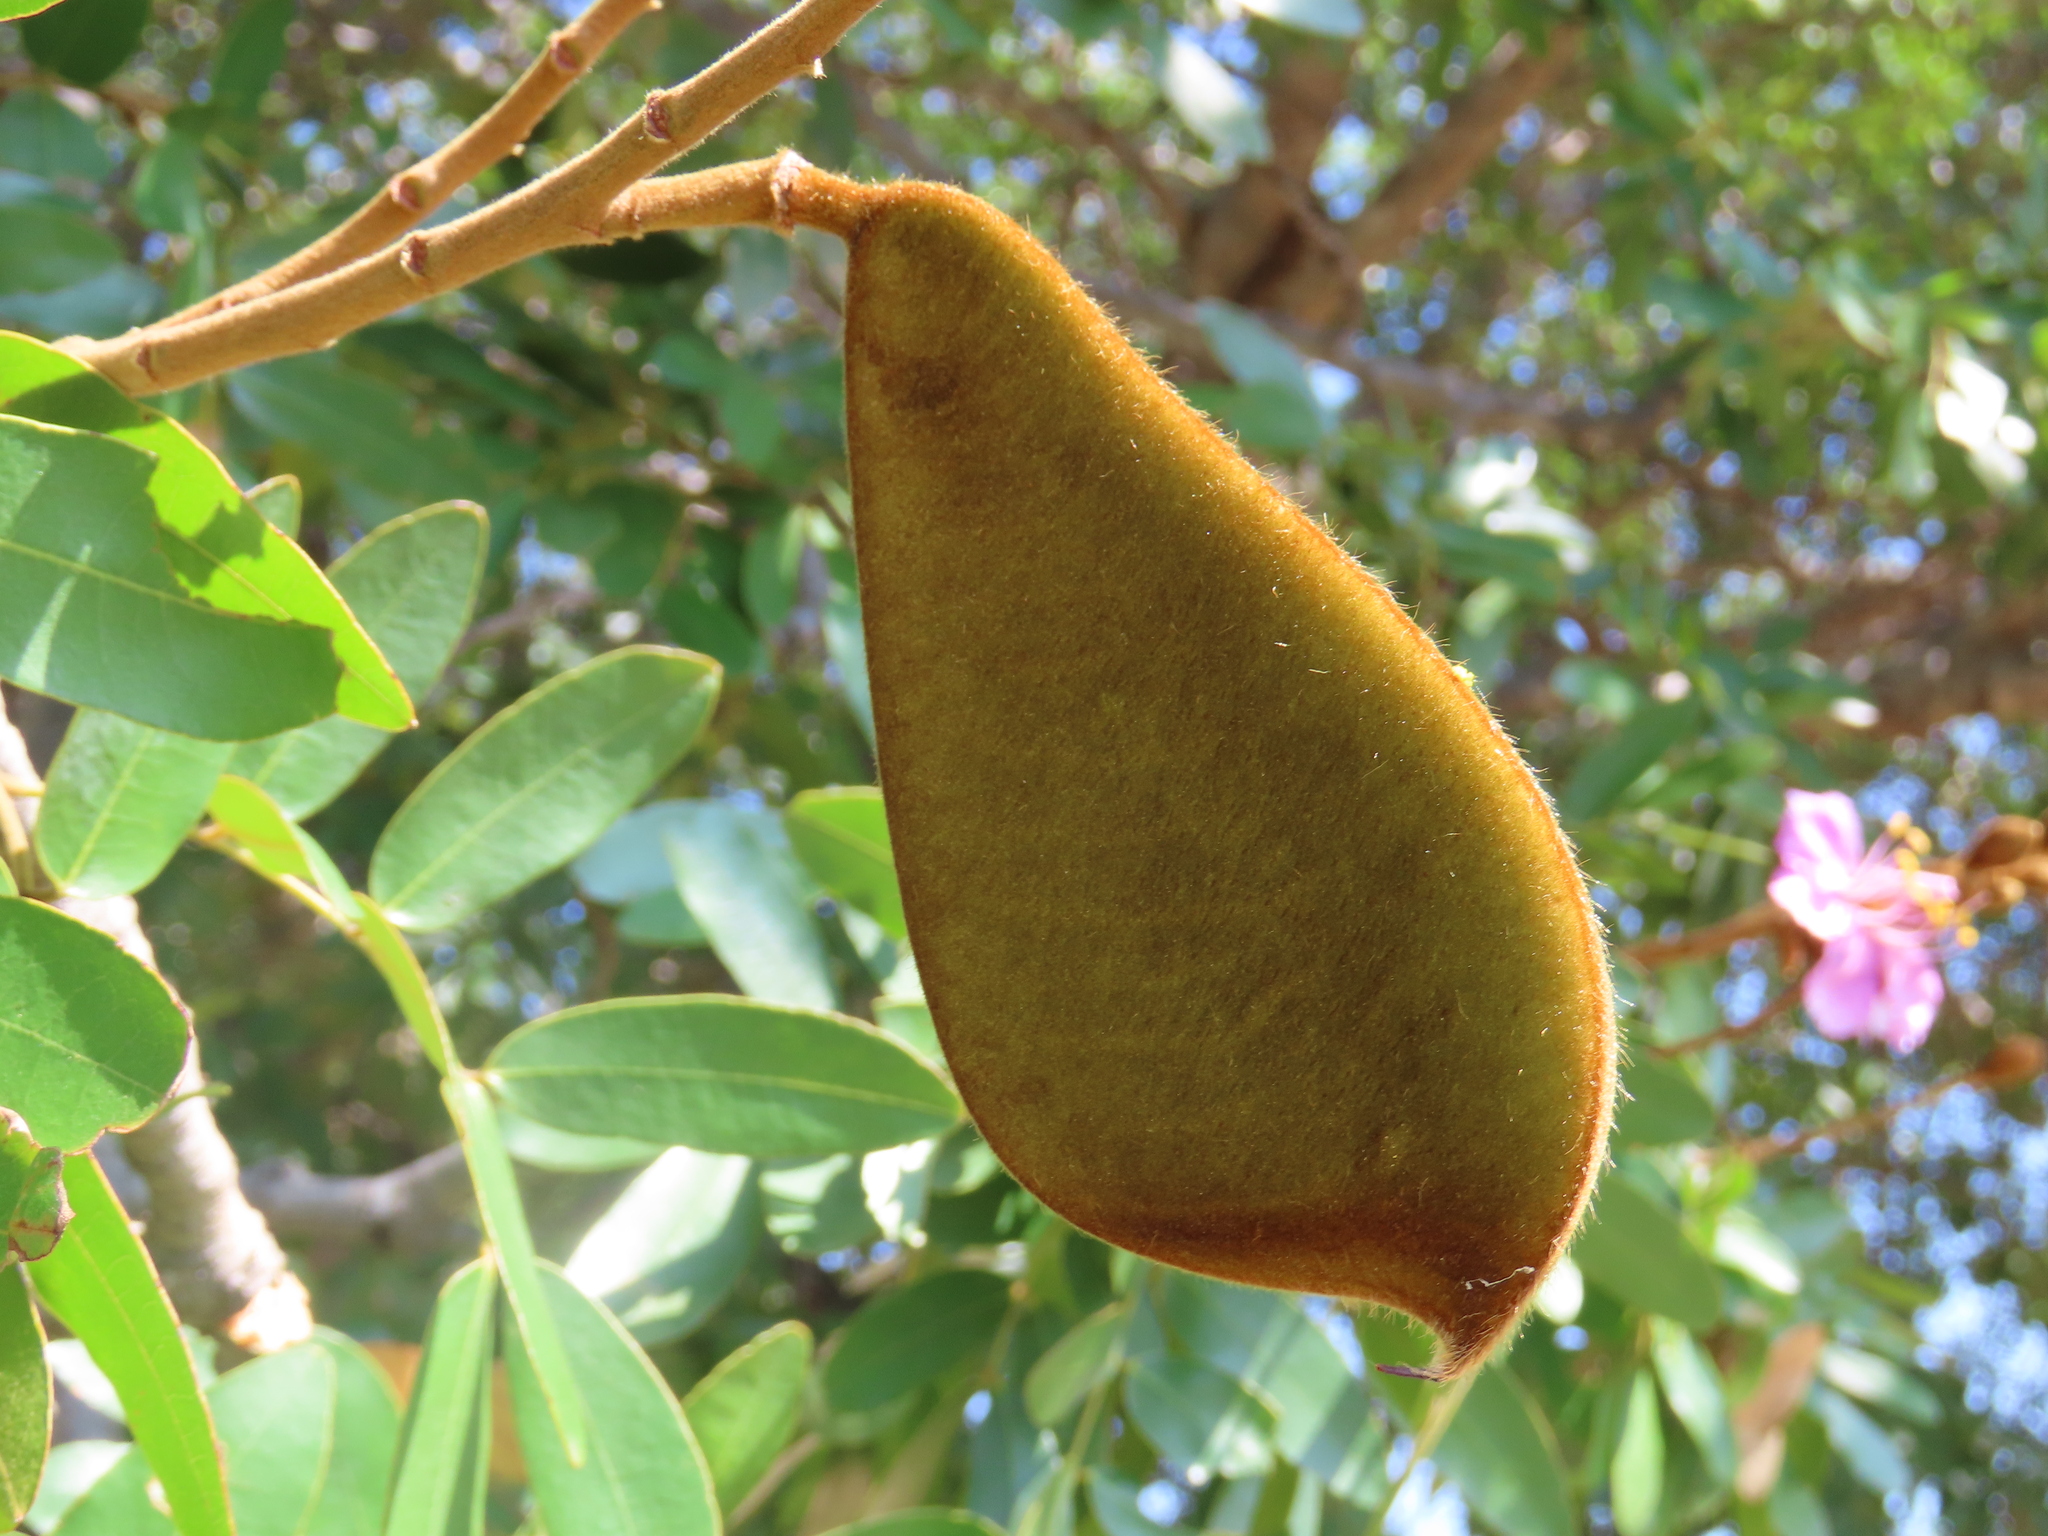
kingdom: Plantae
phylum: Tracheophyta
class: Magnoliopsida
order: Fabales
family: Fabaceae
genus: Baikiaea
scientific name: Baikiaea plurijuga
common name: Rhodesian-teak
